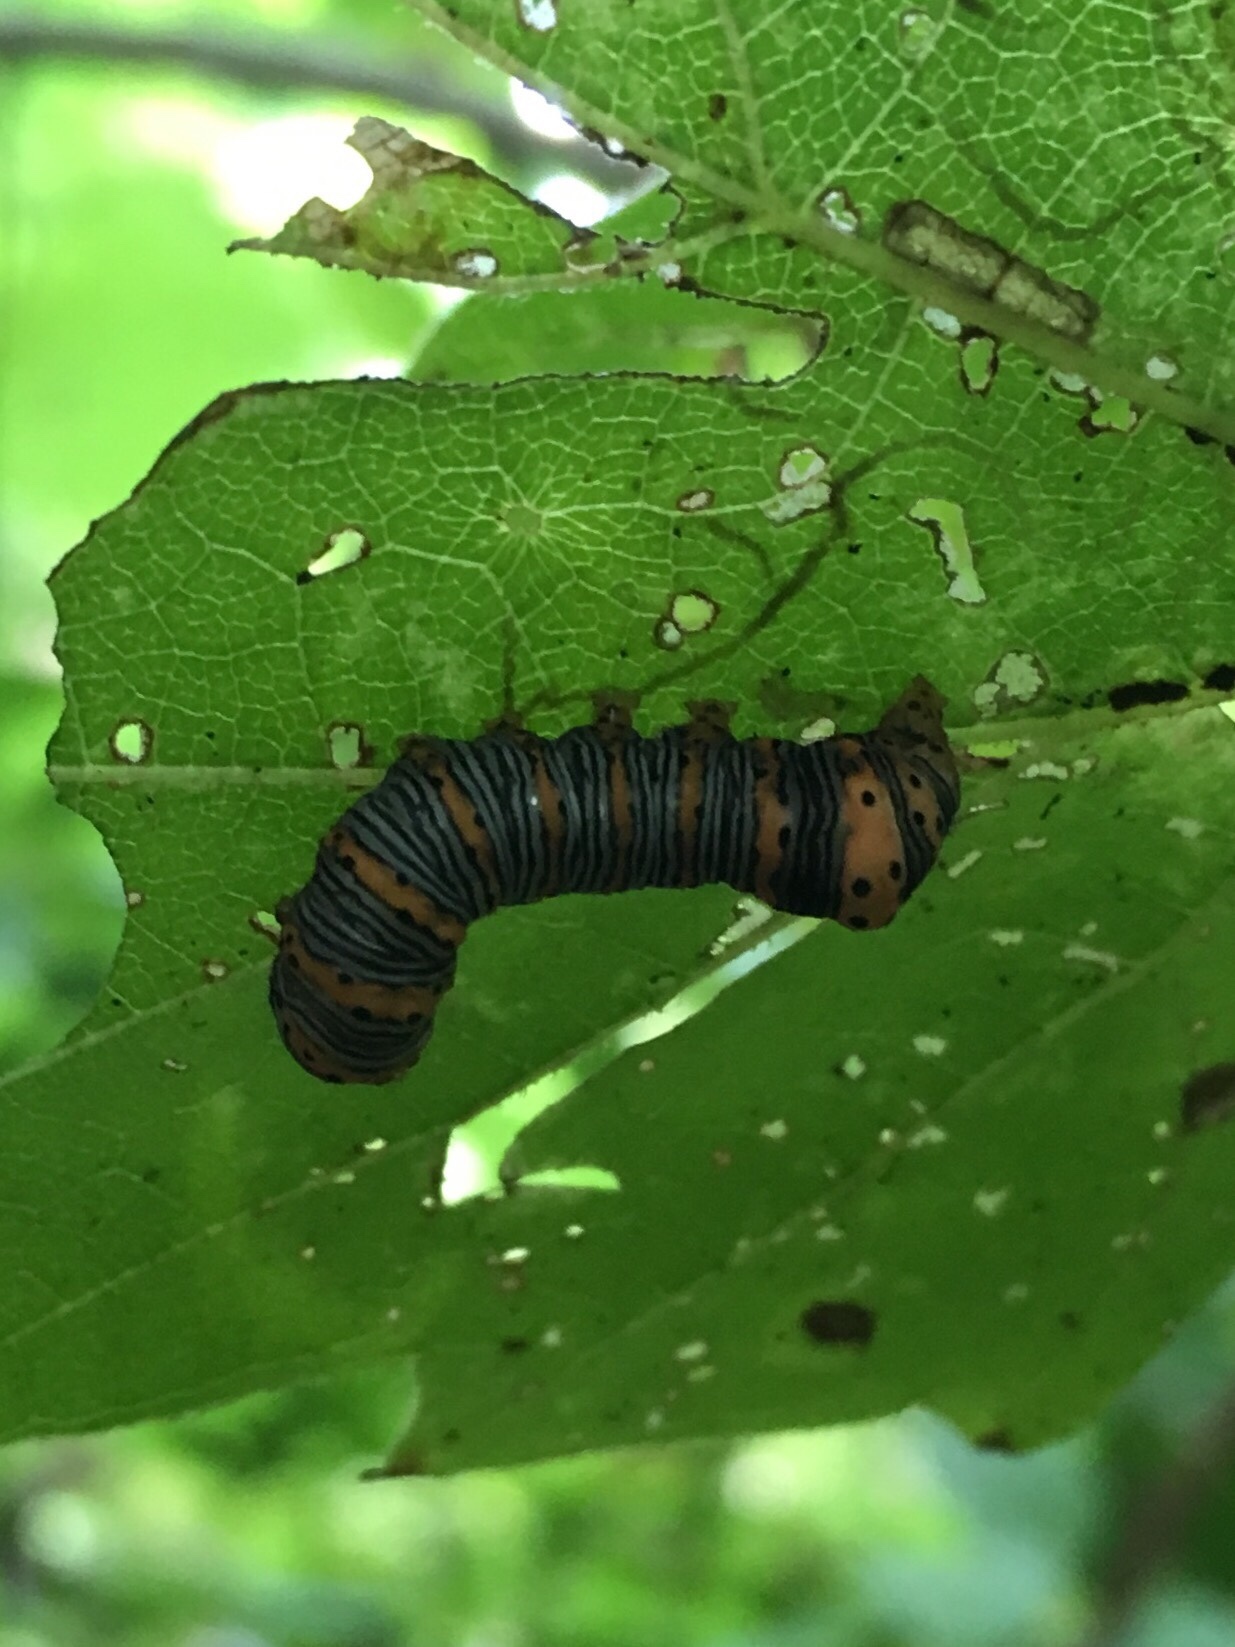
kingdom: Animalia
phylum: Arthropoda
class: Insecta
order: Lepidoptera
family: Noctuidae
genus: Eudryas
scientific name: Eudryas grata
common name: Beautiful wood-nymph
